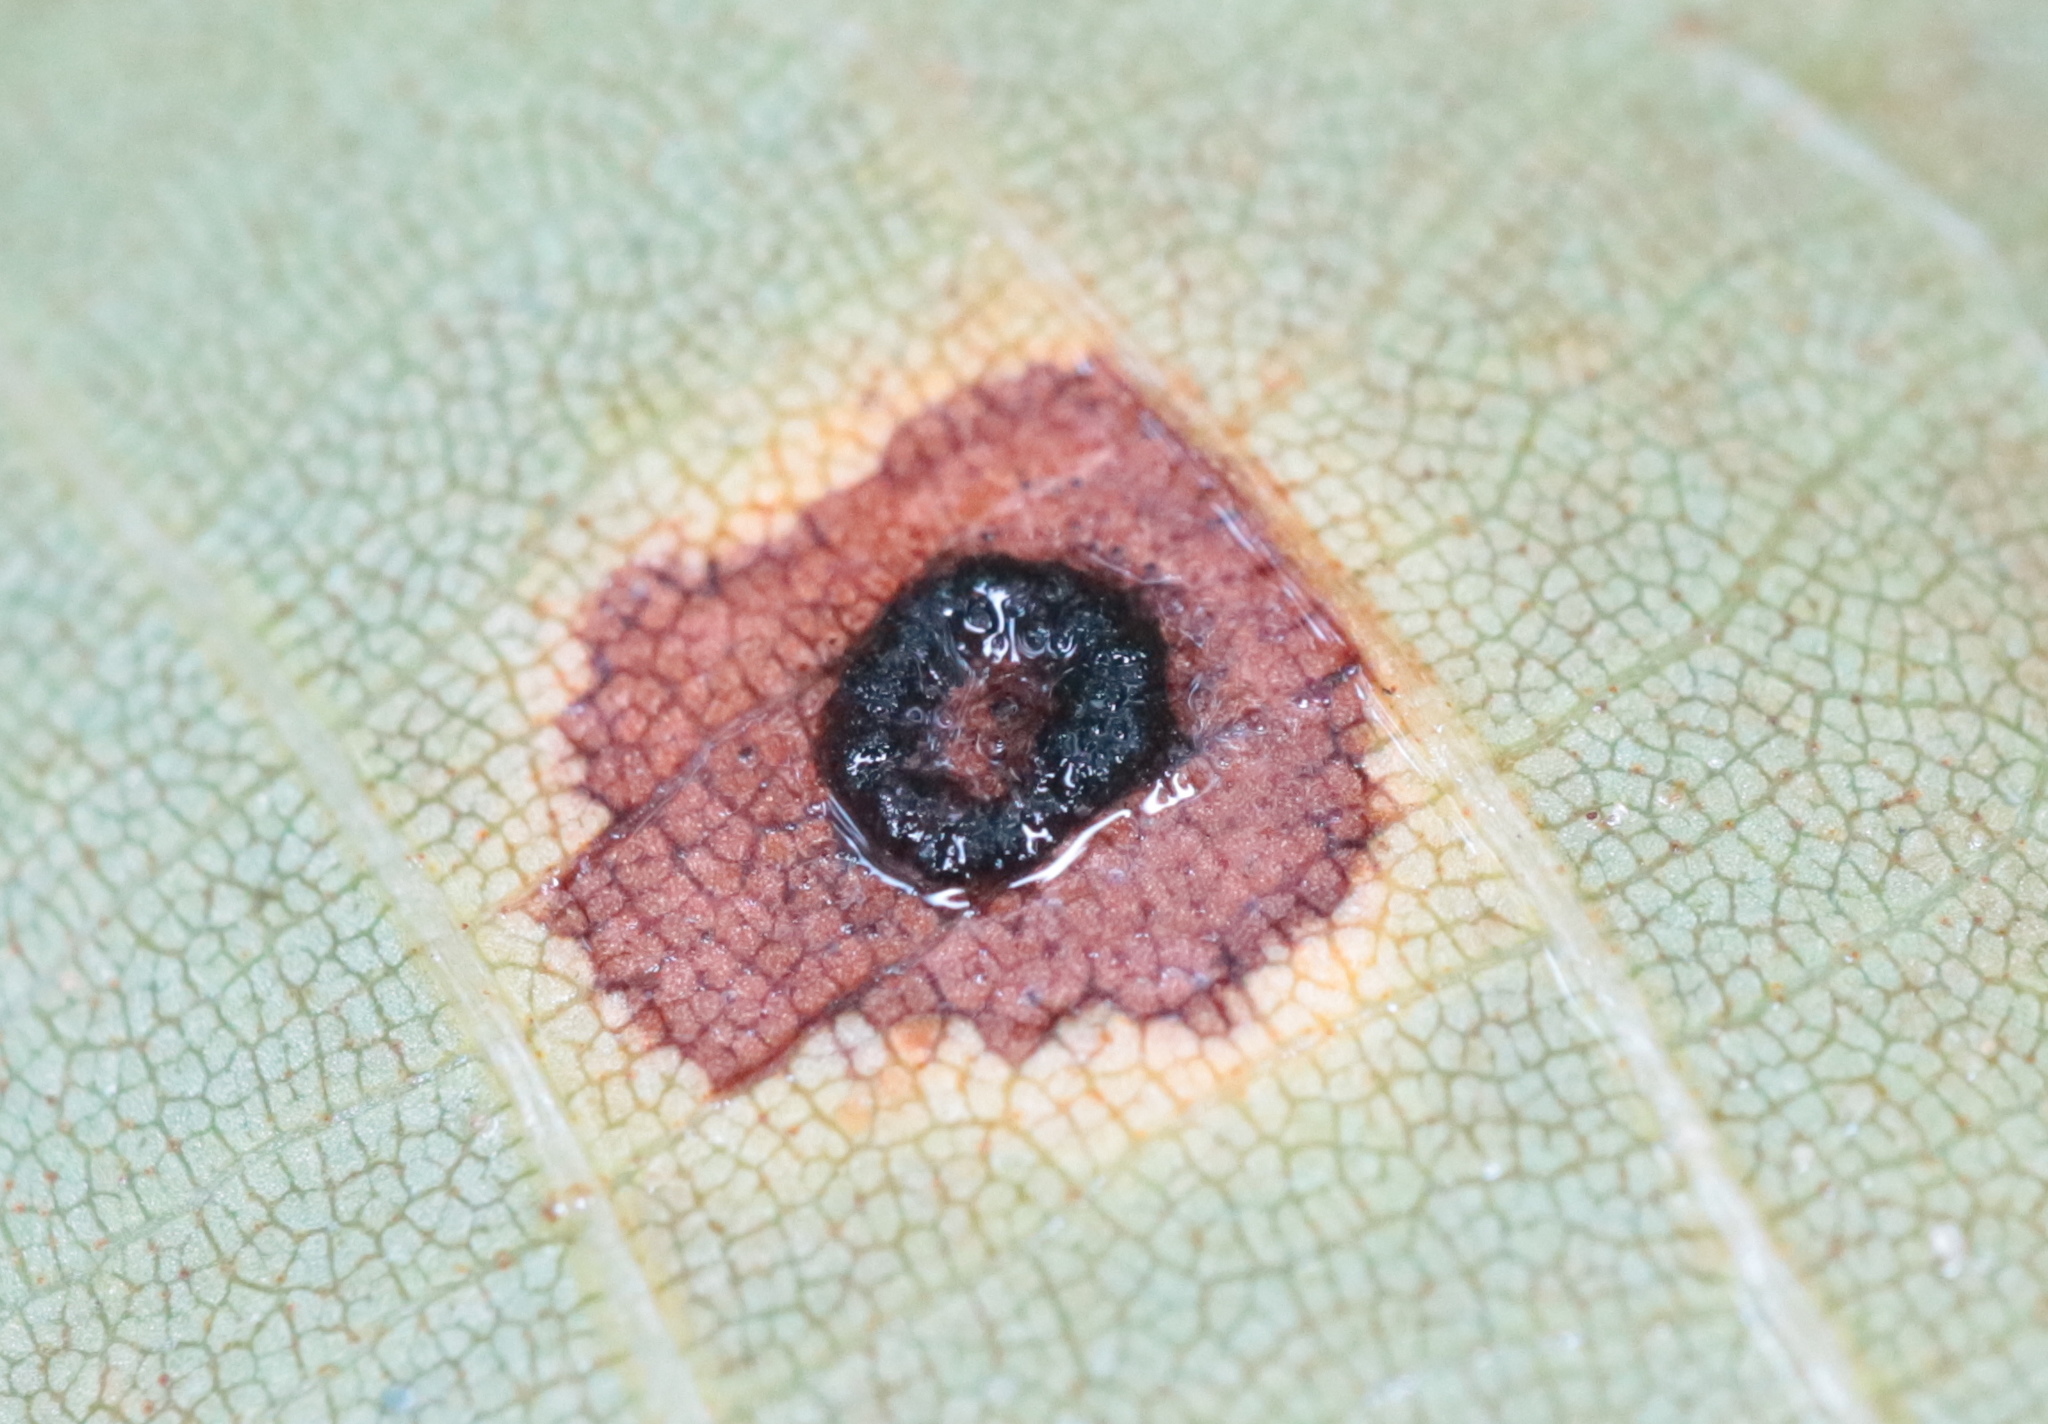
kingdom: Animalia
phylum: Arthropoda
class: Insecta
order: Diptera
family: Cecidomyiidae
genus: Gliaspilota
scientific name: Gliaspilota glutinosa
